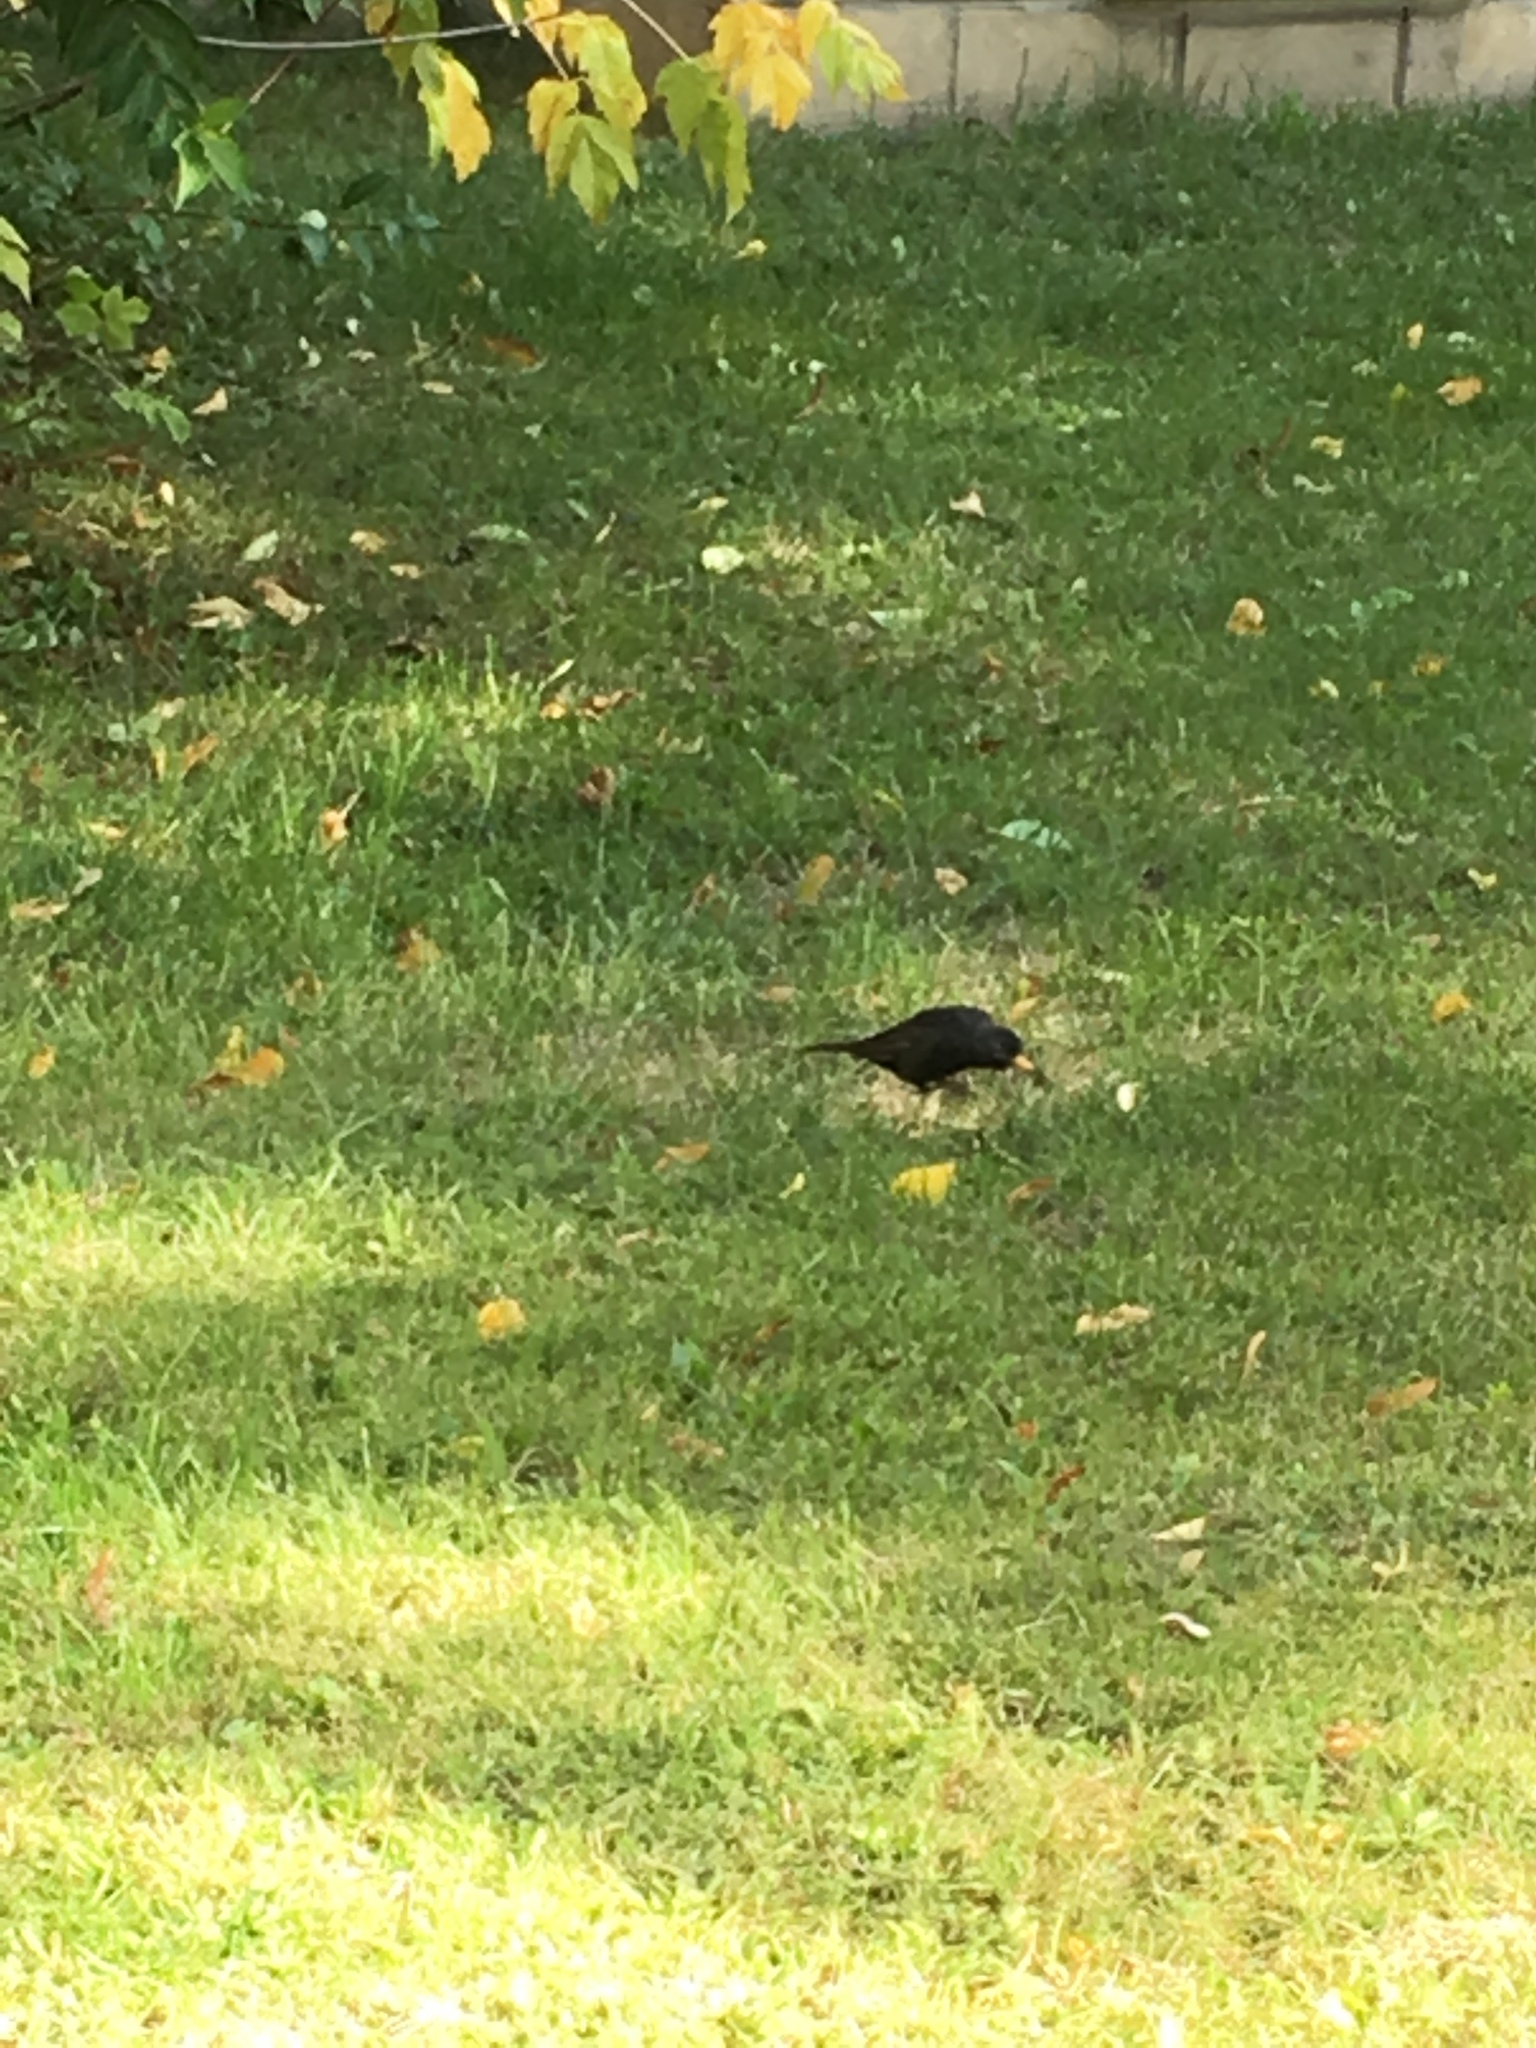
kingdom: Animalia
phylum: Chordata
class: Aves
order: Passeriformes
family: Turdidae
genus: Turdus
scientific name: Turdus merula
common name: Common blackbird
